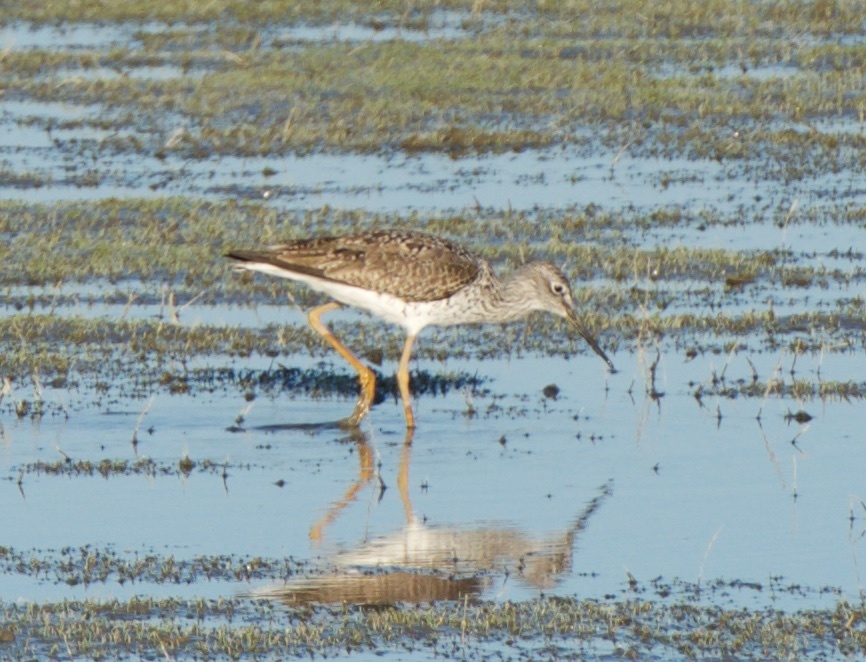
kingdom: Animalia
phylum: Chordata
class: Aves
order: Charadriiformes
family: Scolopacidae
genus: Tringa
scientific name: Tringa melanoleuca
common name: Greater yellowlegs
